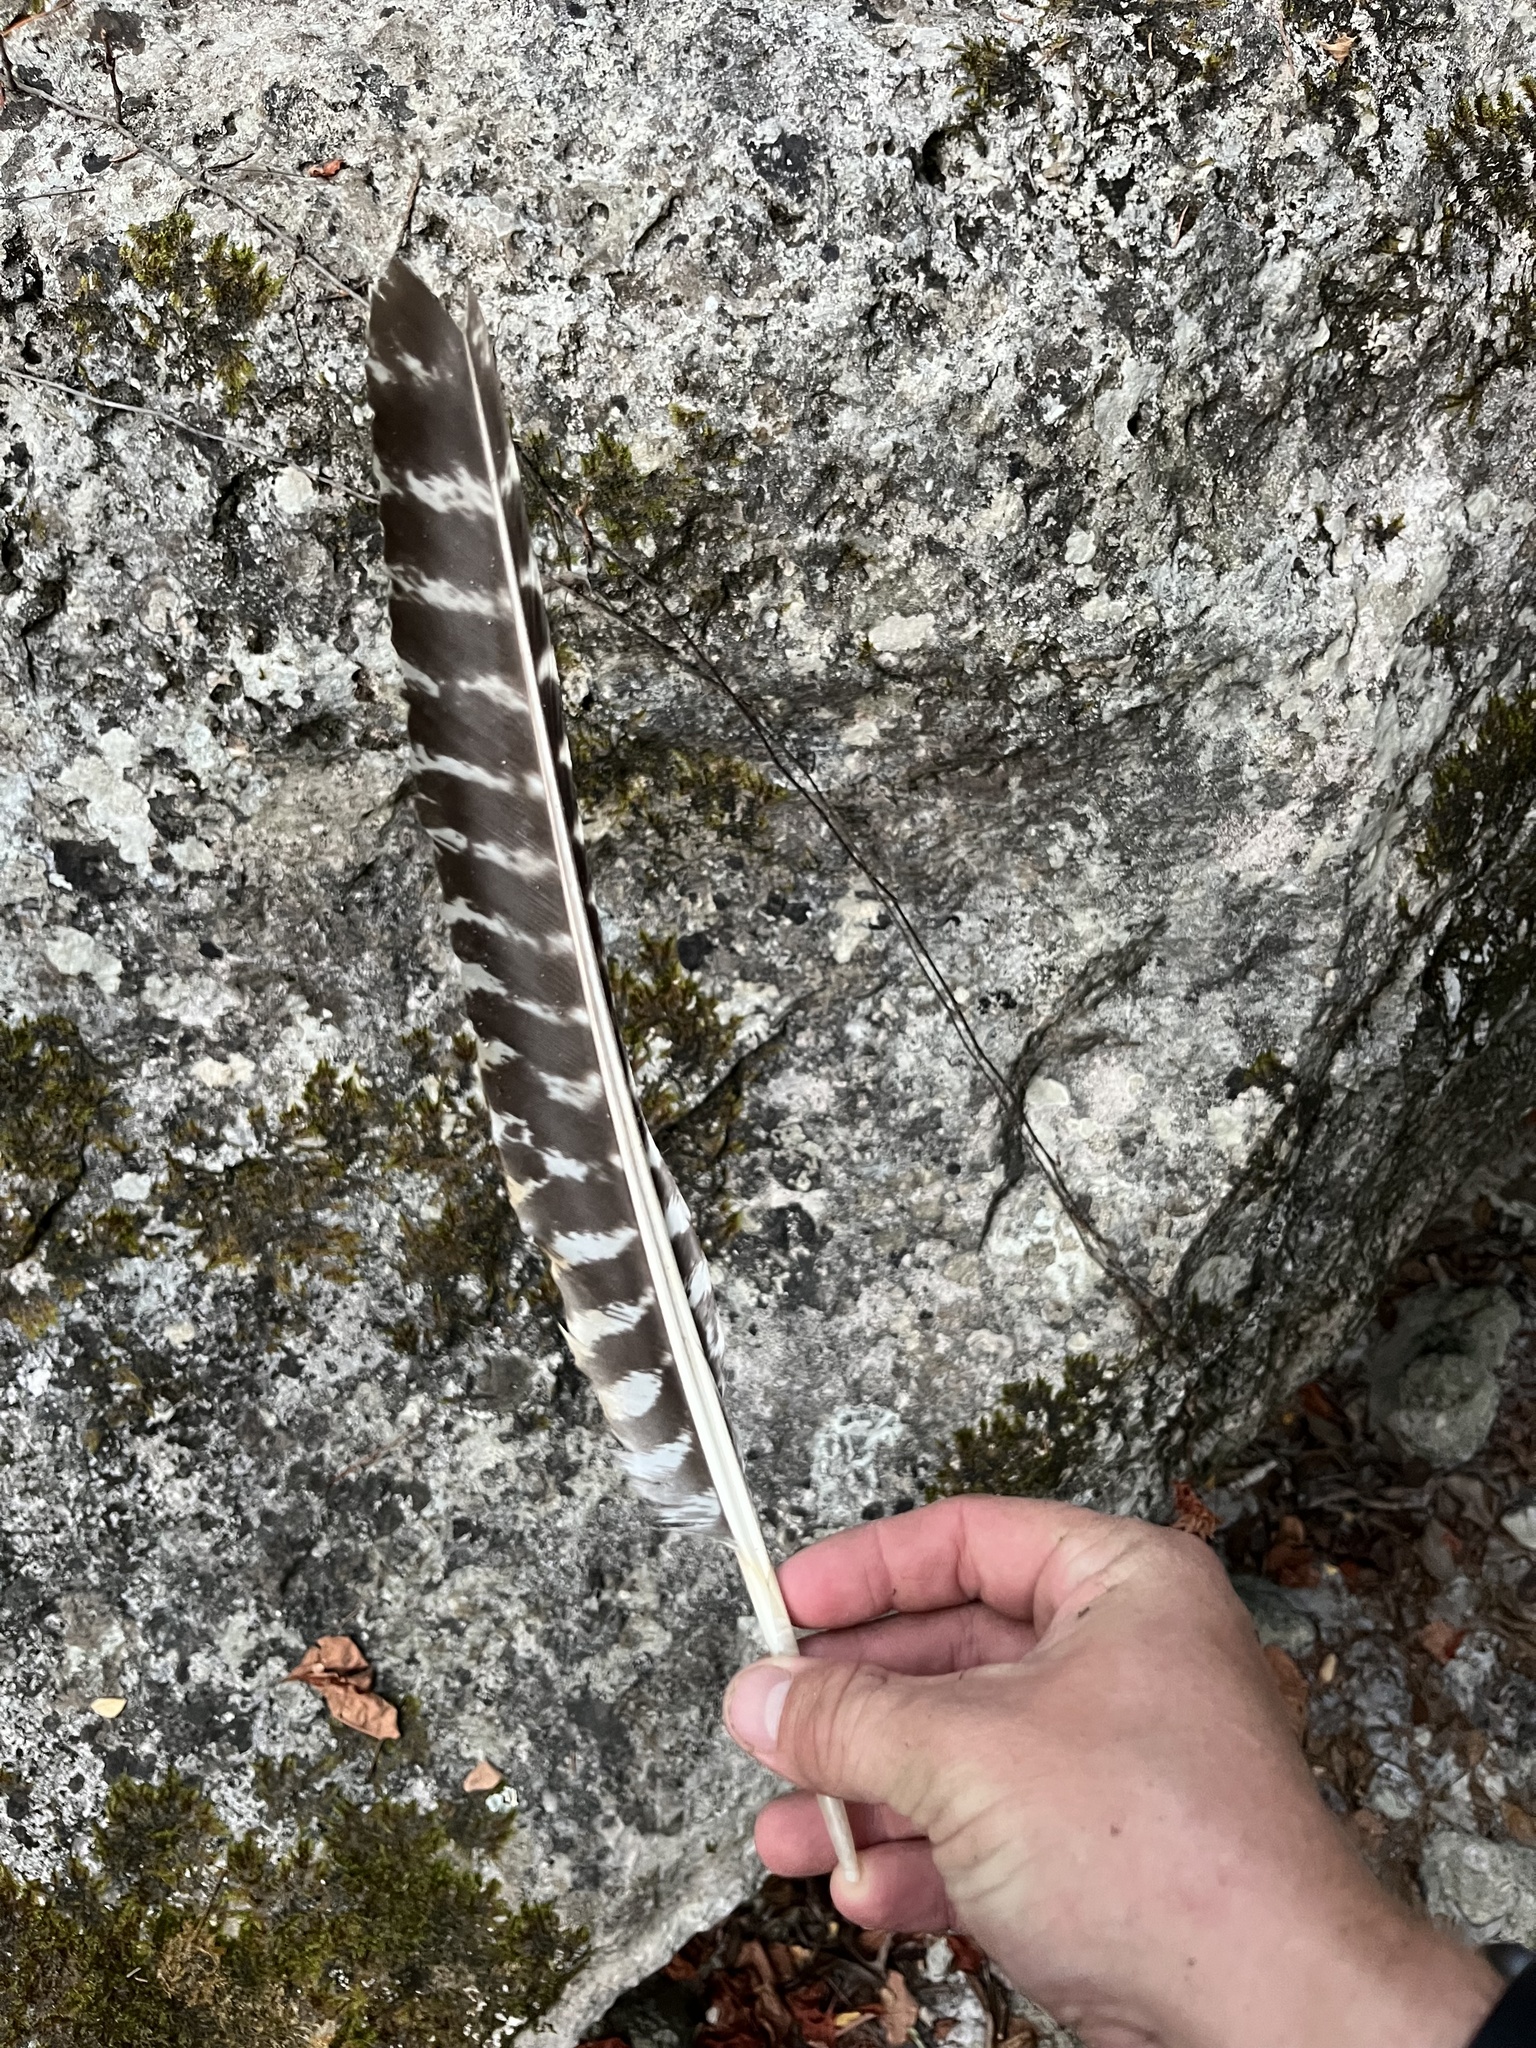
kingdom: Animalia
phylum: Chordata
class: Aves
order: Galliformes
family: Phasianidae
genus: Meleagris
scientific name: Meleagris gallopavo
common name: Wild turkey
